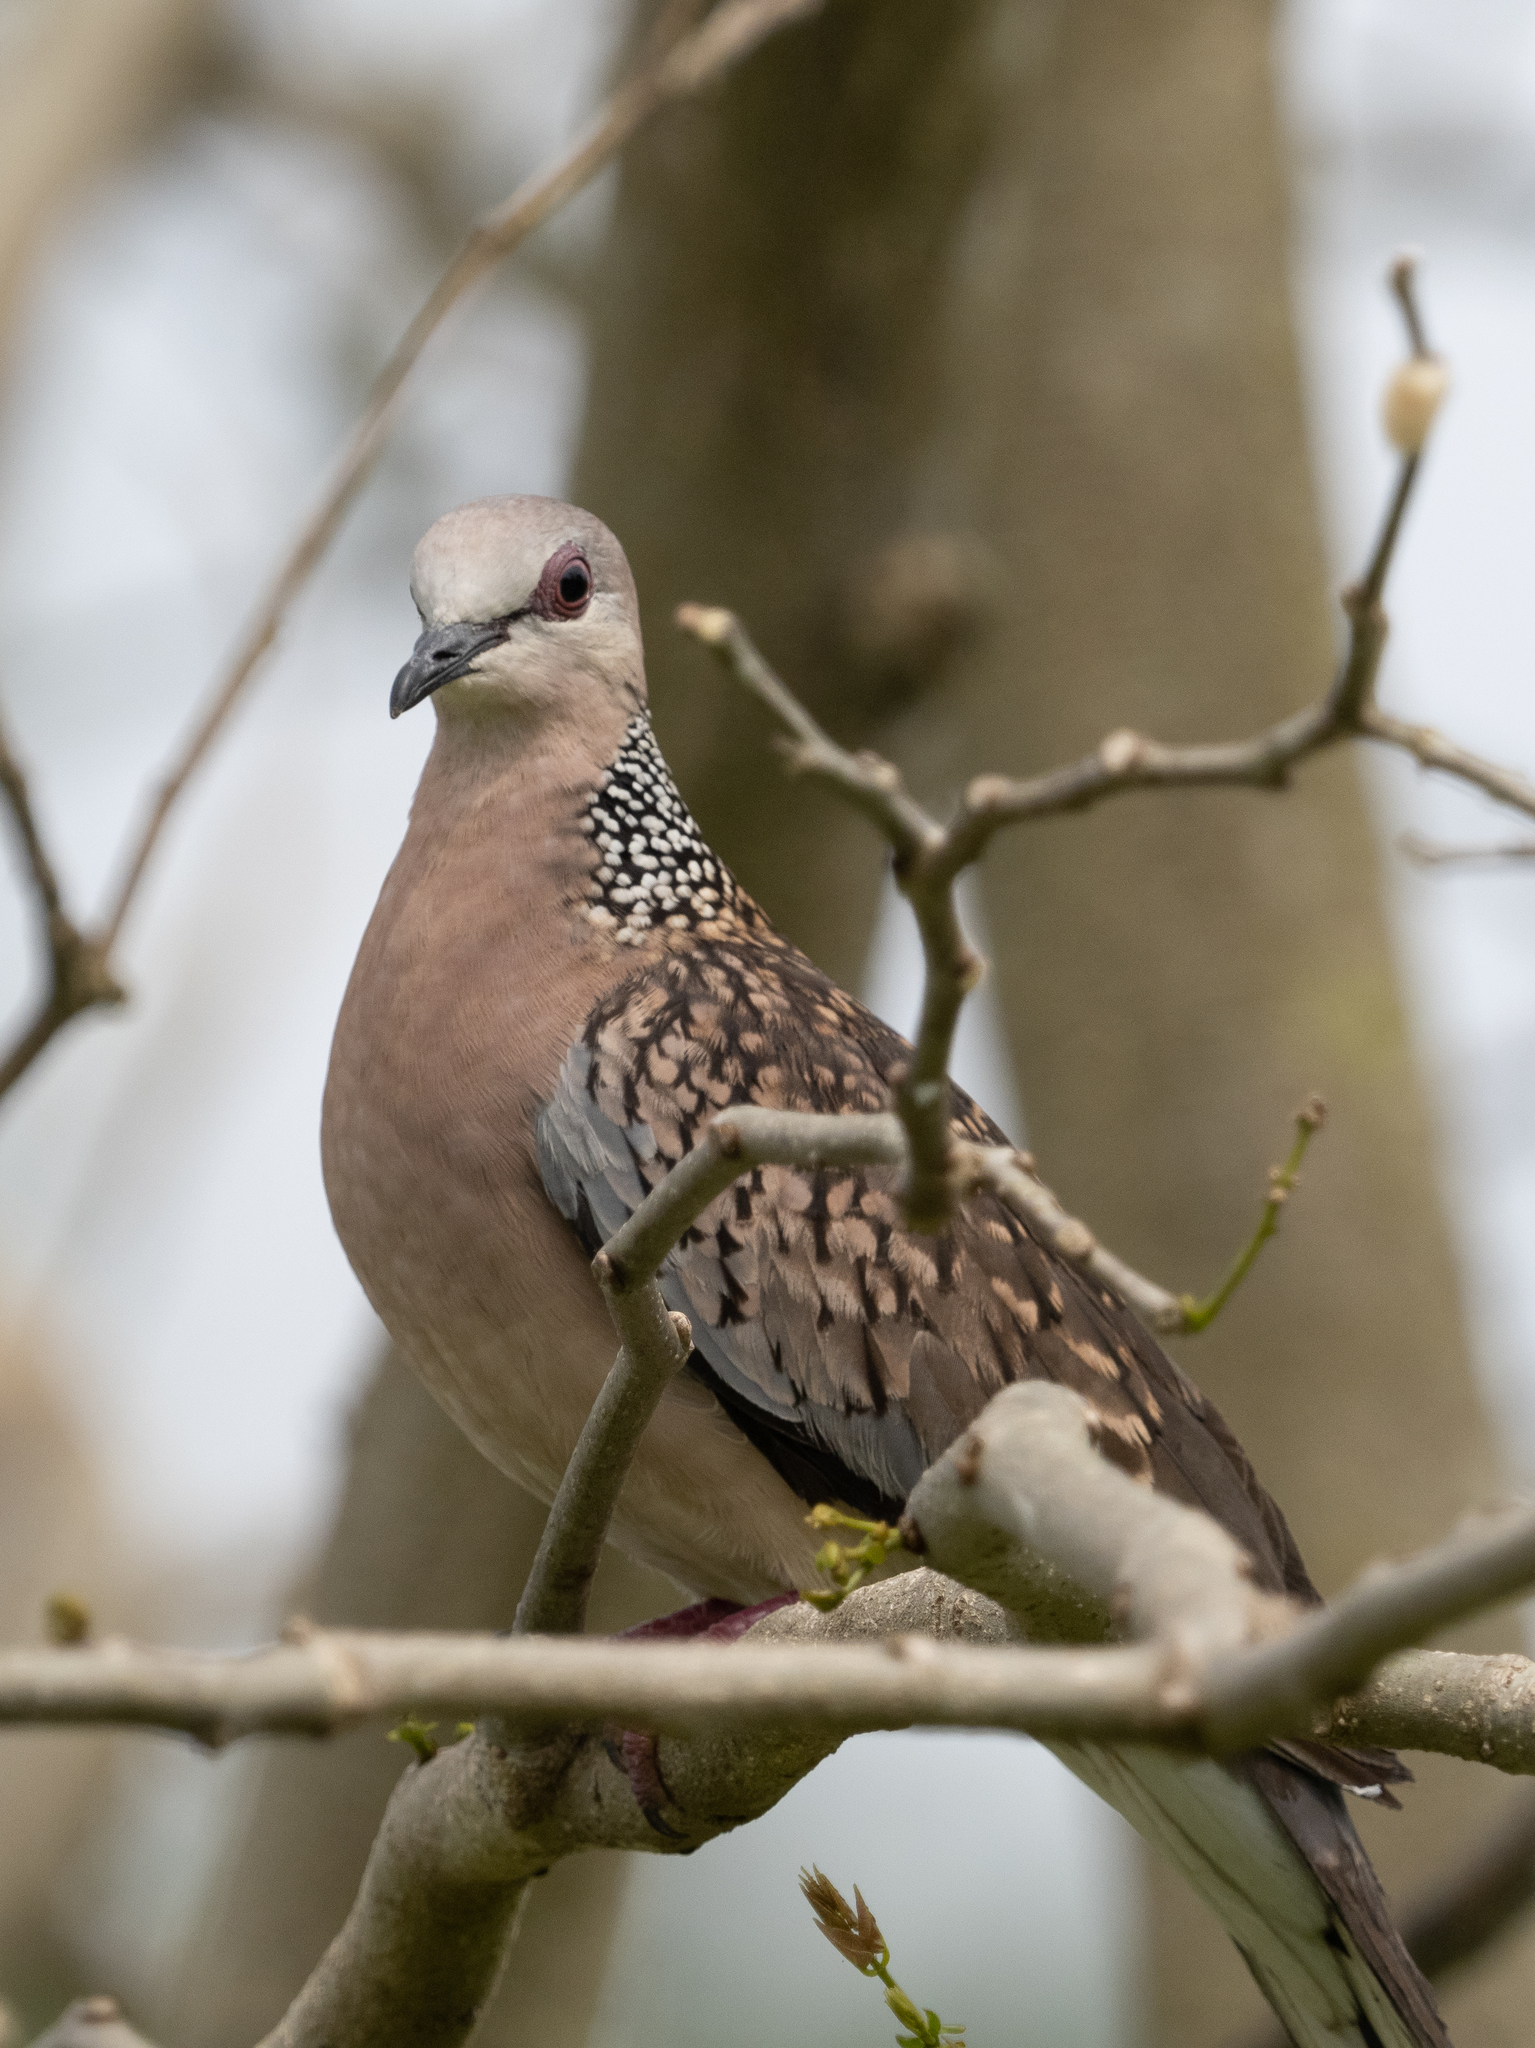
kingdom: Animalia
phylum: Chordata
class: Aves
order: Columbiformes
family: Columbidae
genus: Spilopelia
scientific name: Spilopelia chinensis
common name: Spotted dove
